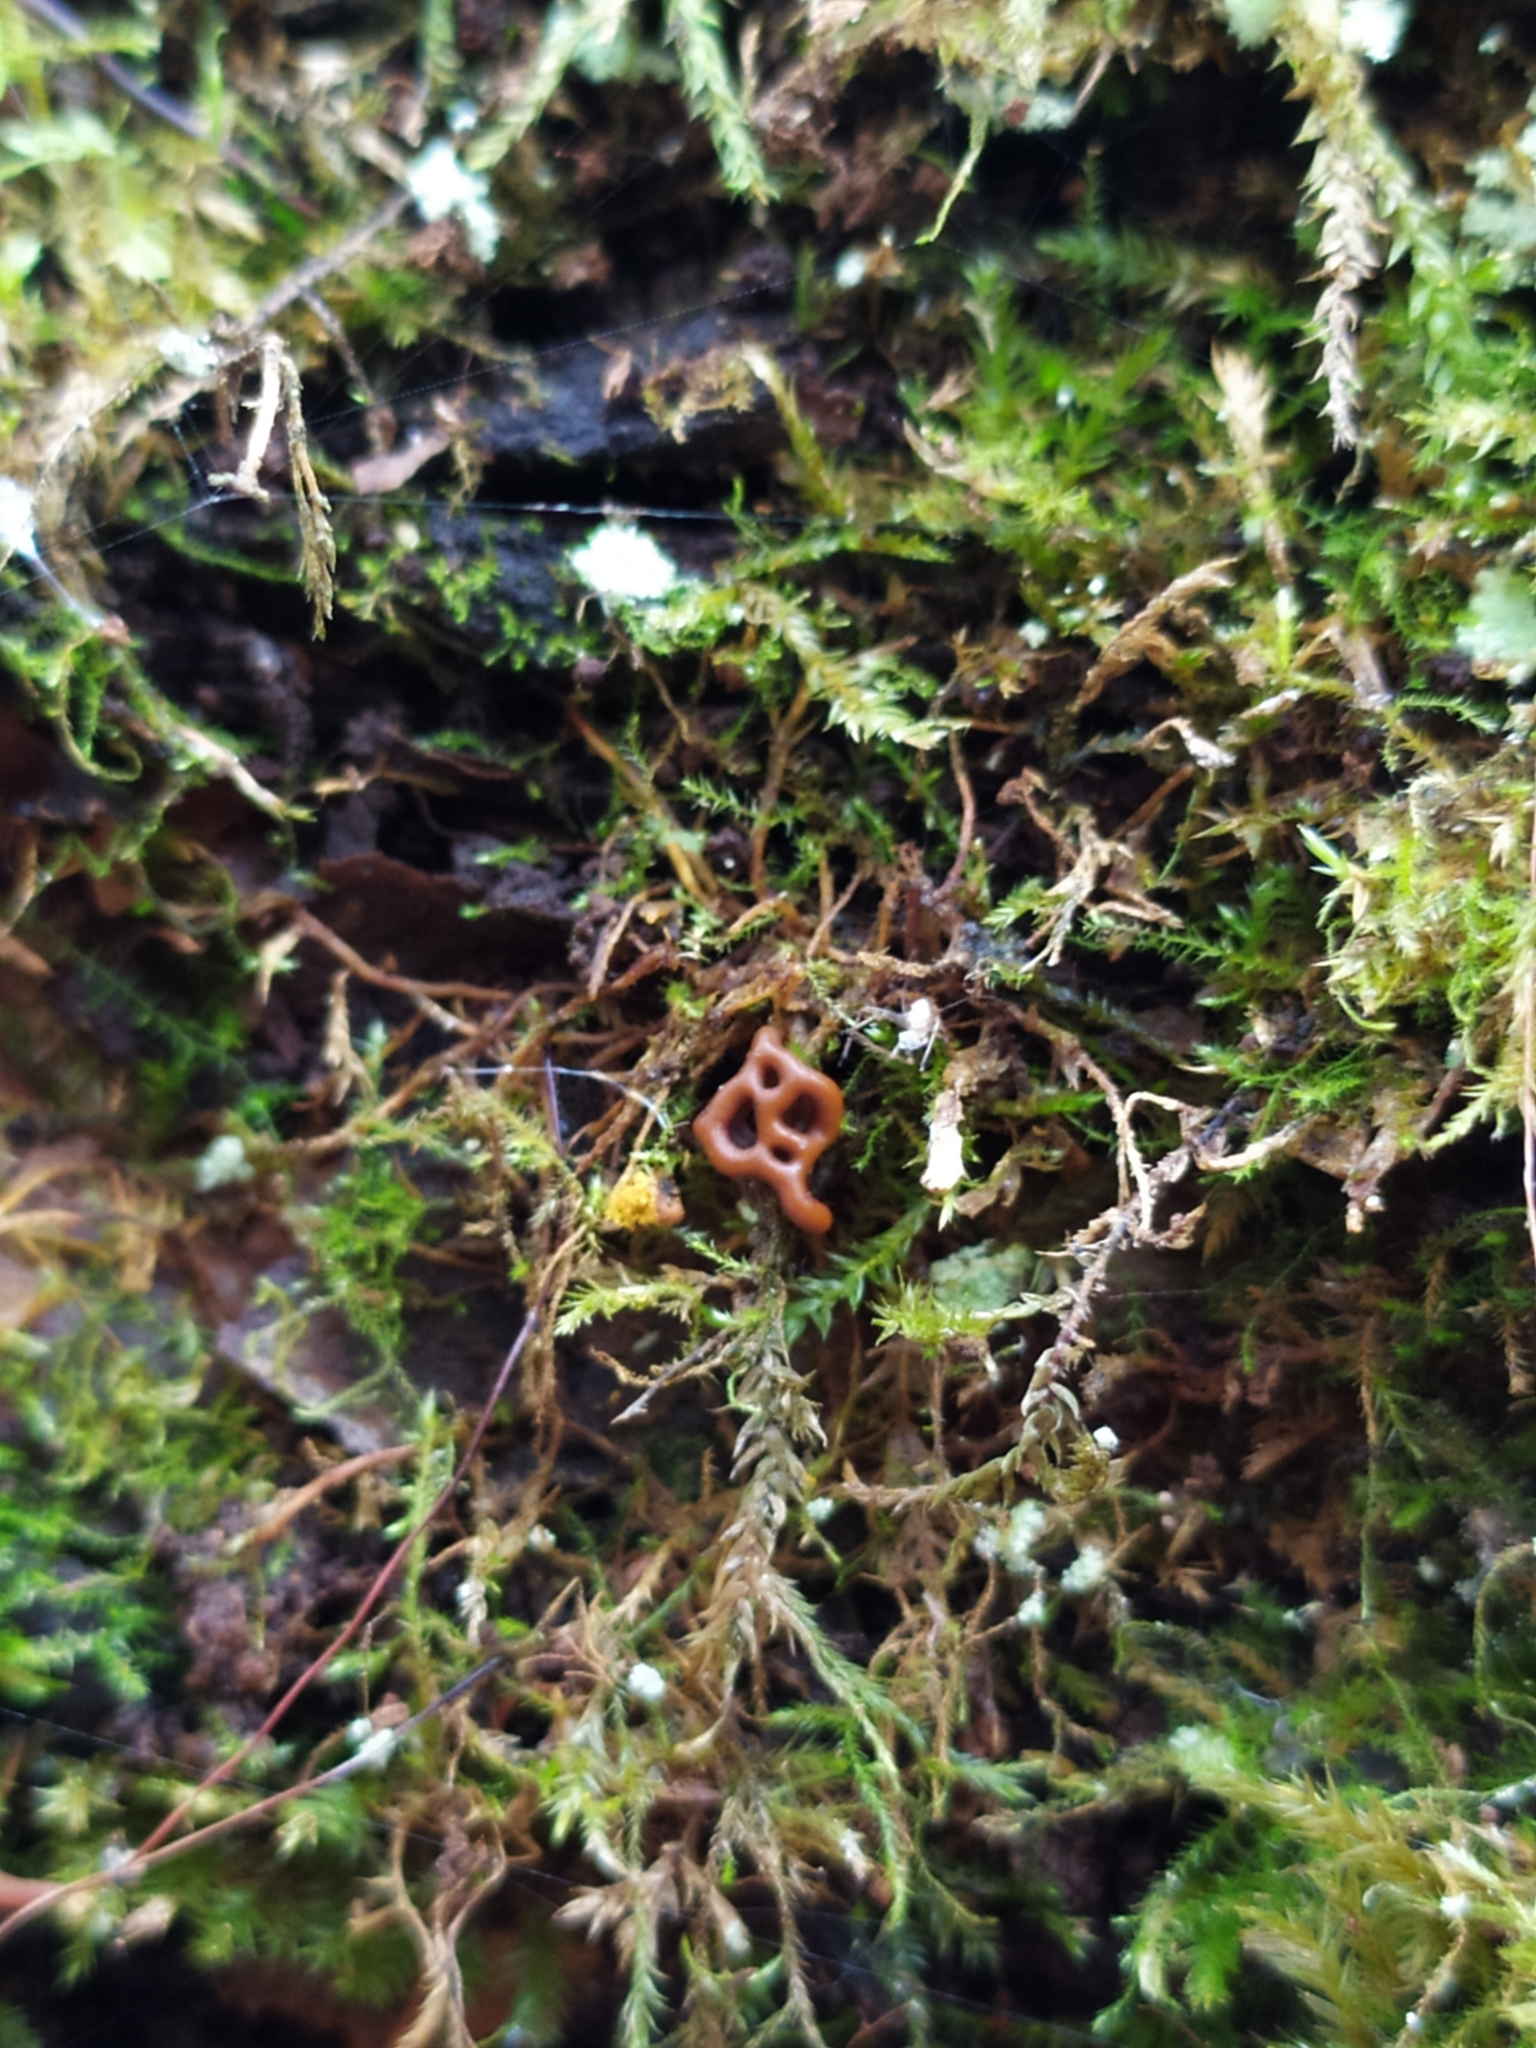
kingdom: Protozoa
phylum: Mycetozoa
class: Myxomycetes
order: Trichiales
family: Arcyriaceae
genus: Hemitrichia
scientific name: Hemitrichia serpula
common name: Pretzel slime mold
